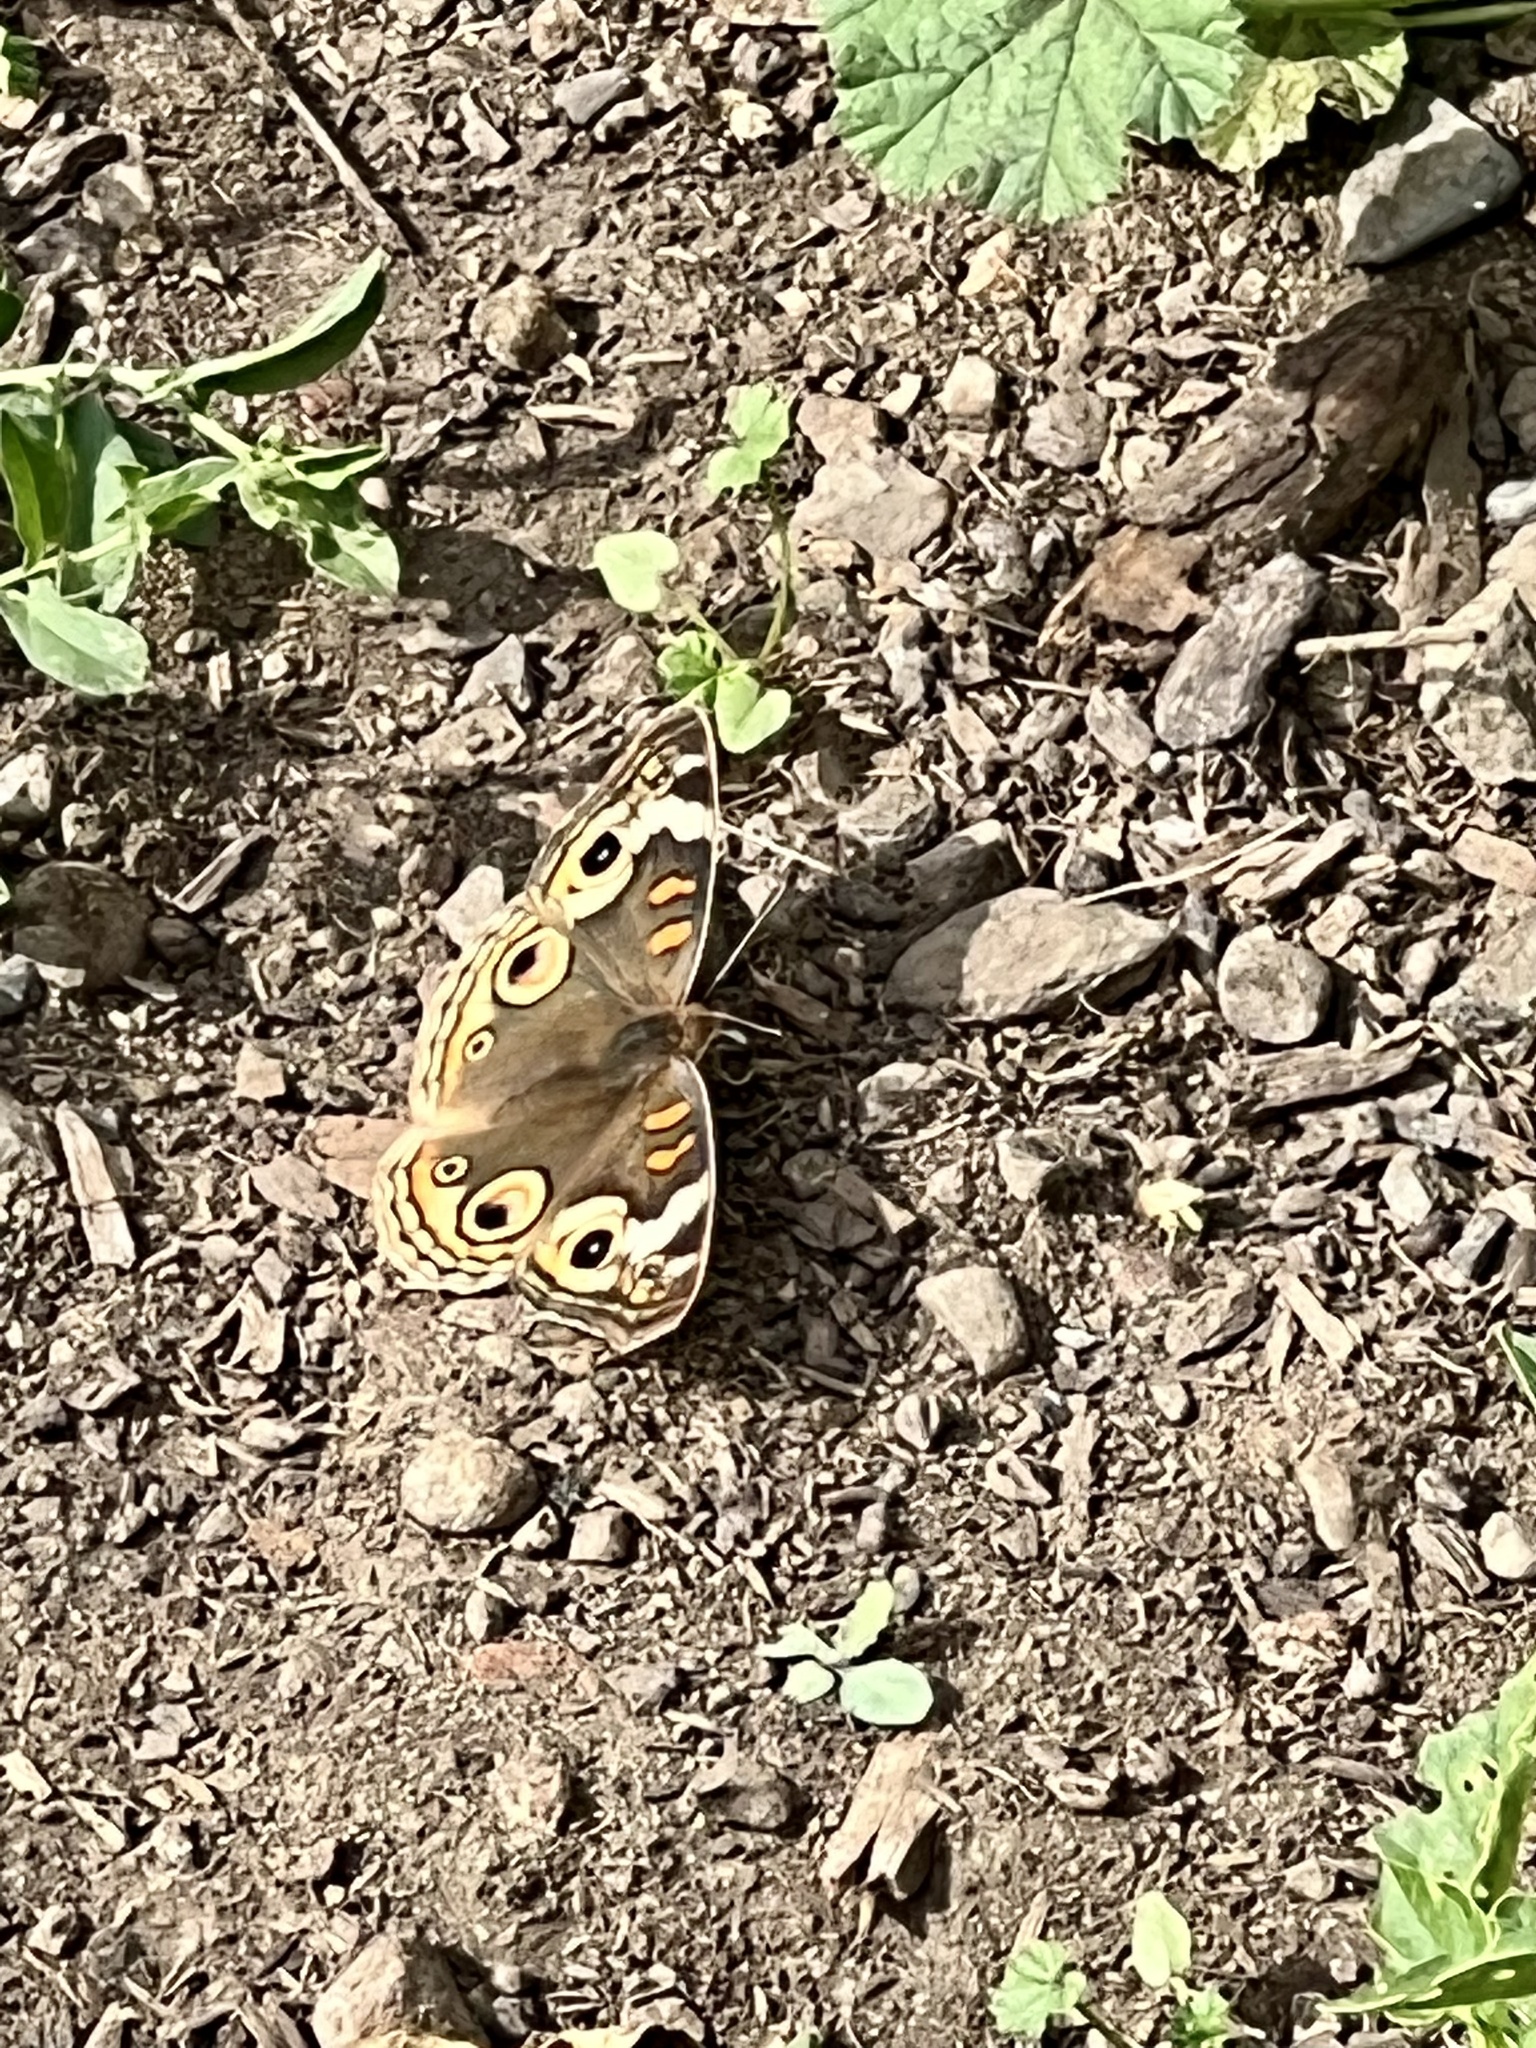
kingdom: Animalia
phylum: Arthropoda
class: Insecta
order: Lepidoptera
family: Nymphalidae
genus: Junonia
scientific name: Junonia grisea
